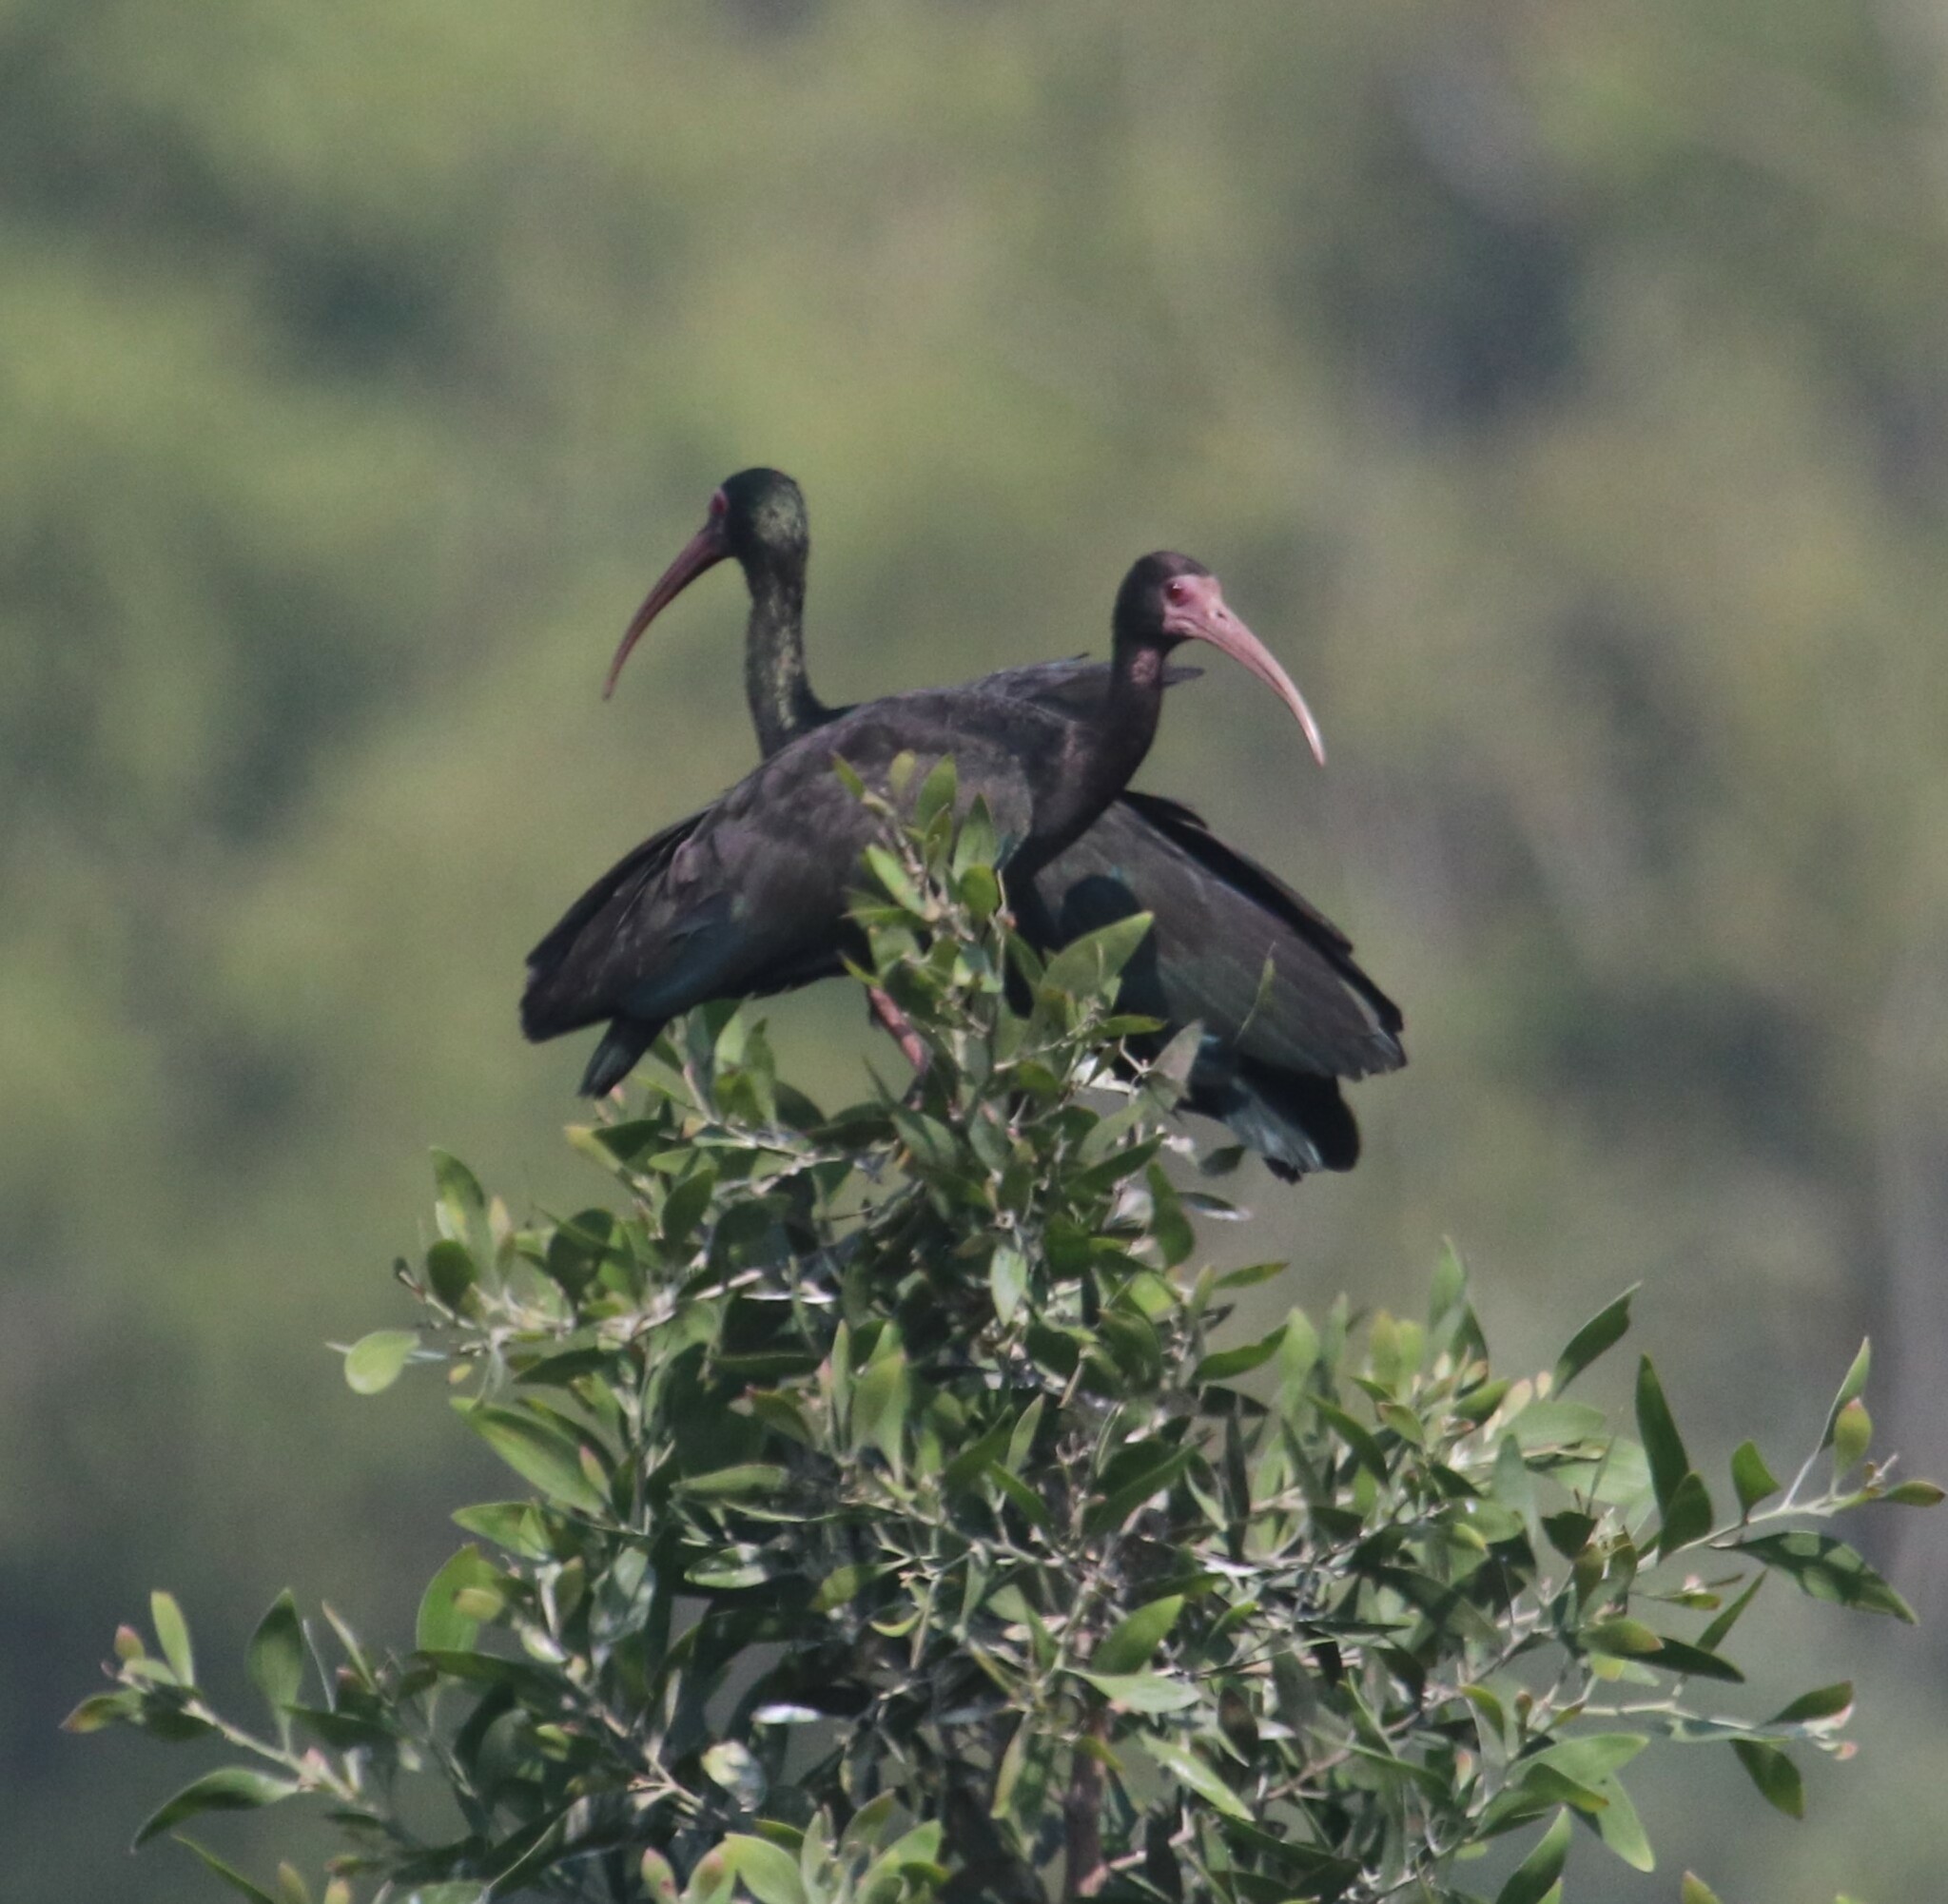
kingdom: Animalia
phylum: Chordata
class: Aves
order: Pelecaniformes
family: Threskiornithidae
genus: Phimosus
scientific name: Phimosus infuscatus
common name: Bare-faced ibis
